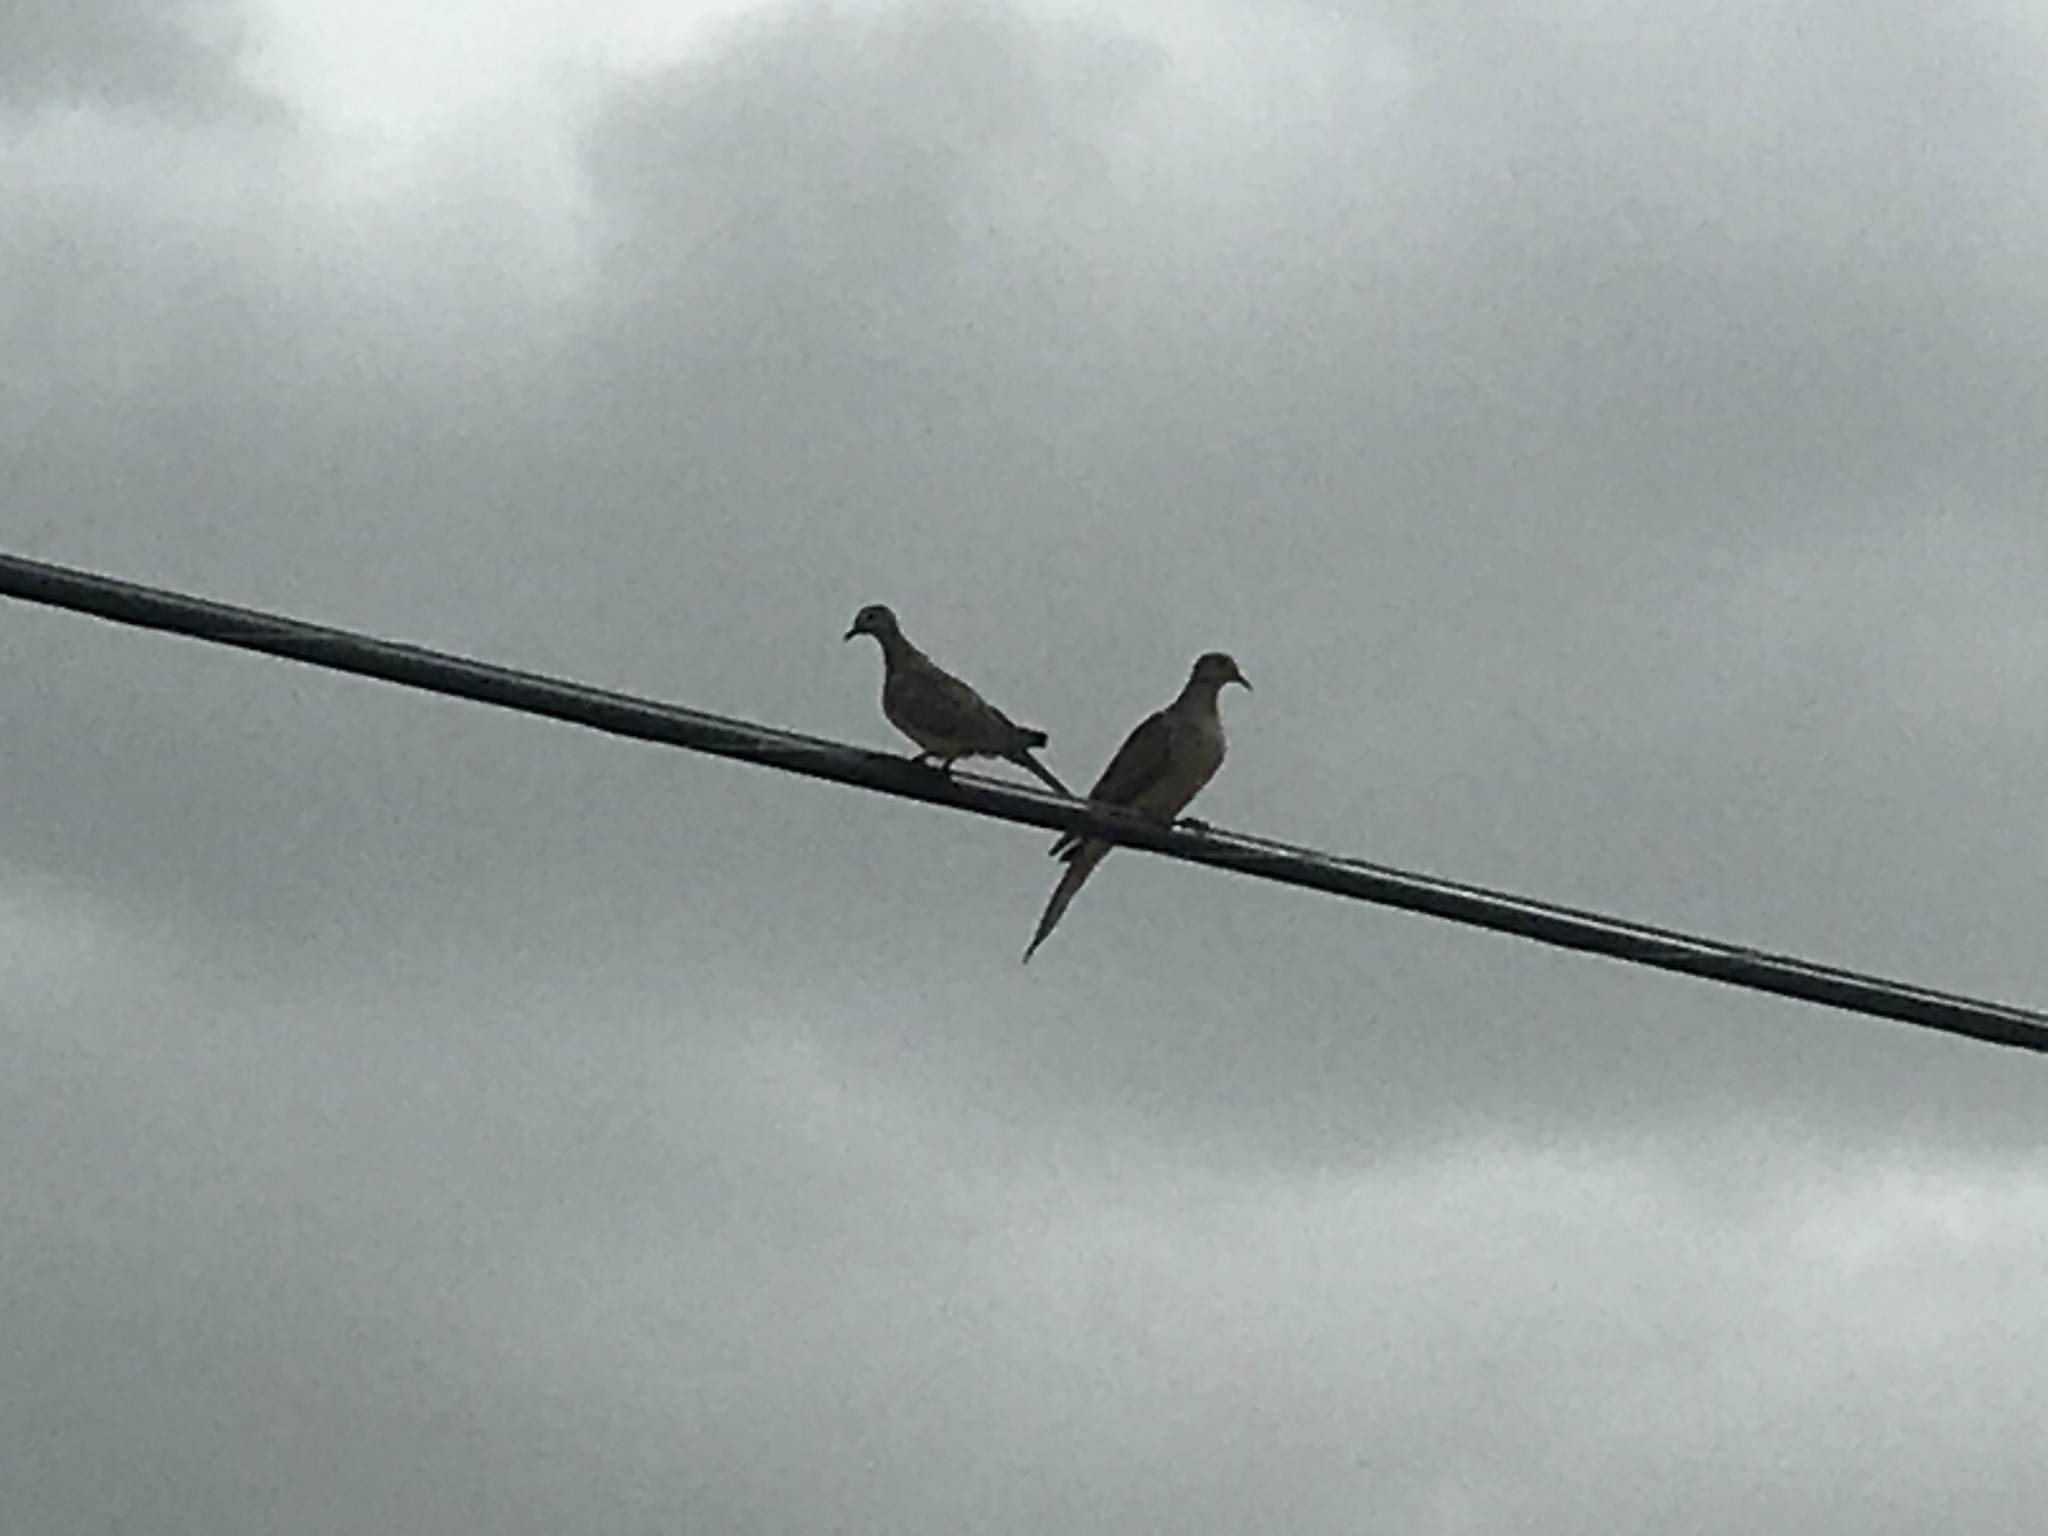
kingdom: Animalia
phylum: Chordata
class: Aves
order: Columbiformes
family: Columbidae
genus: Zenaida
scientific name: Zenaida macroura
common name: Mourning dove
